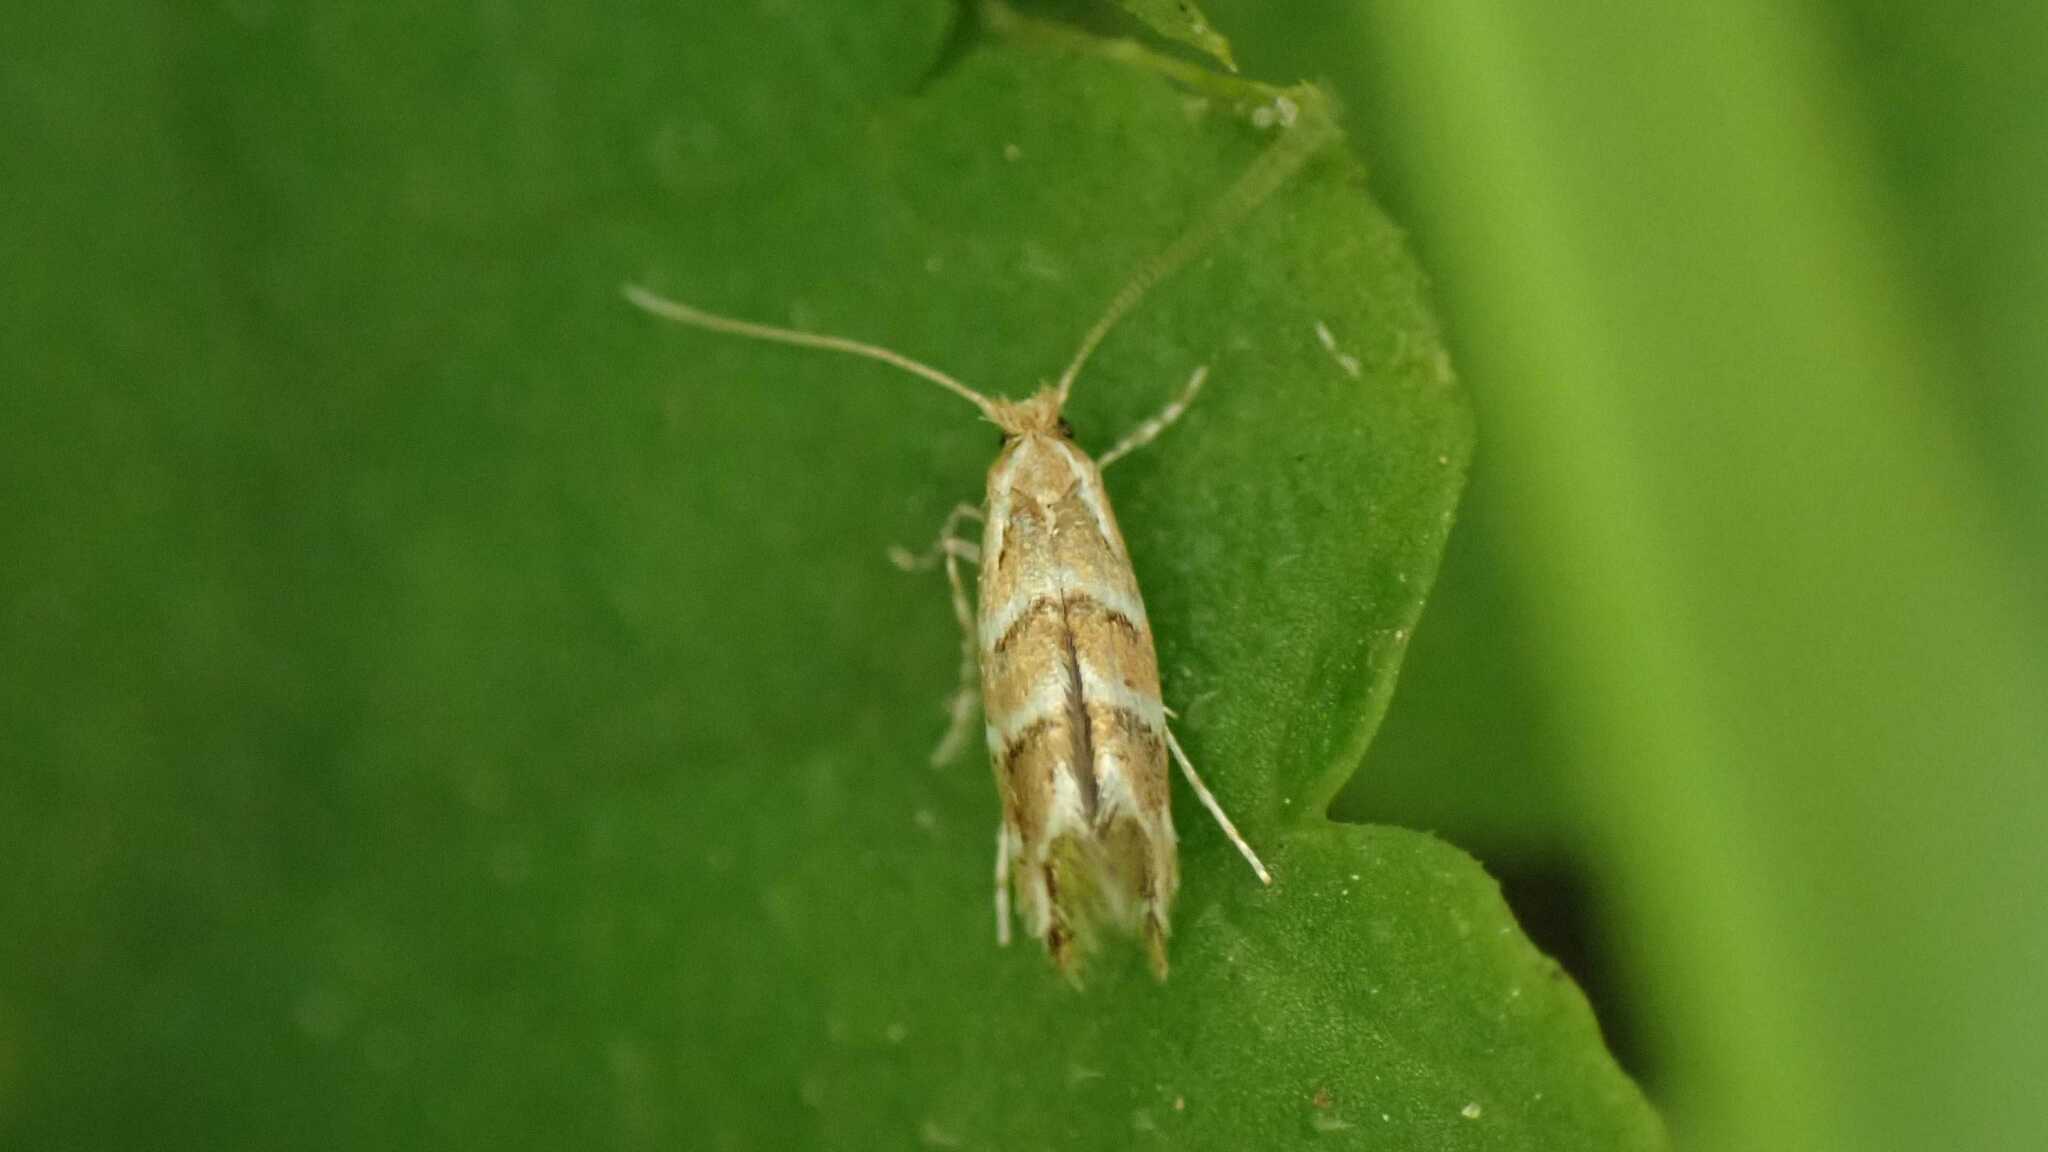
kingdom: Animalia
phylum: Arthropoda
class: Insecta
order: Lepidoptera
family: Gracillariidae
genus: Cameraria
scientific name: Cameraria ohridella
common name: Horse-chestnut leaf-miner
